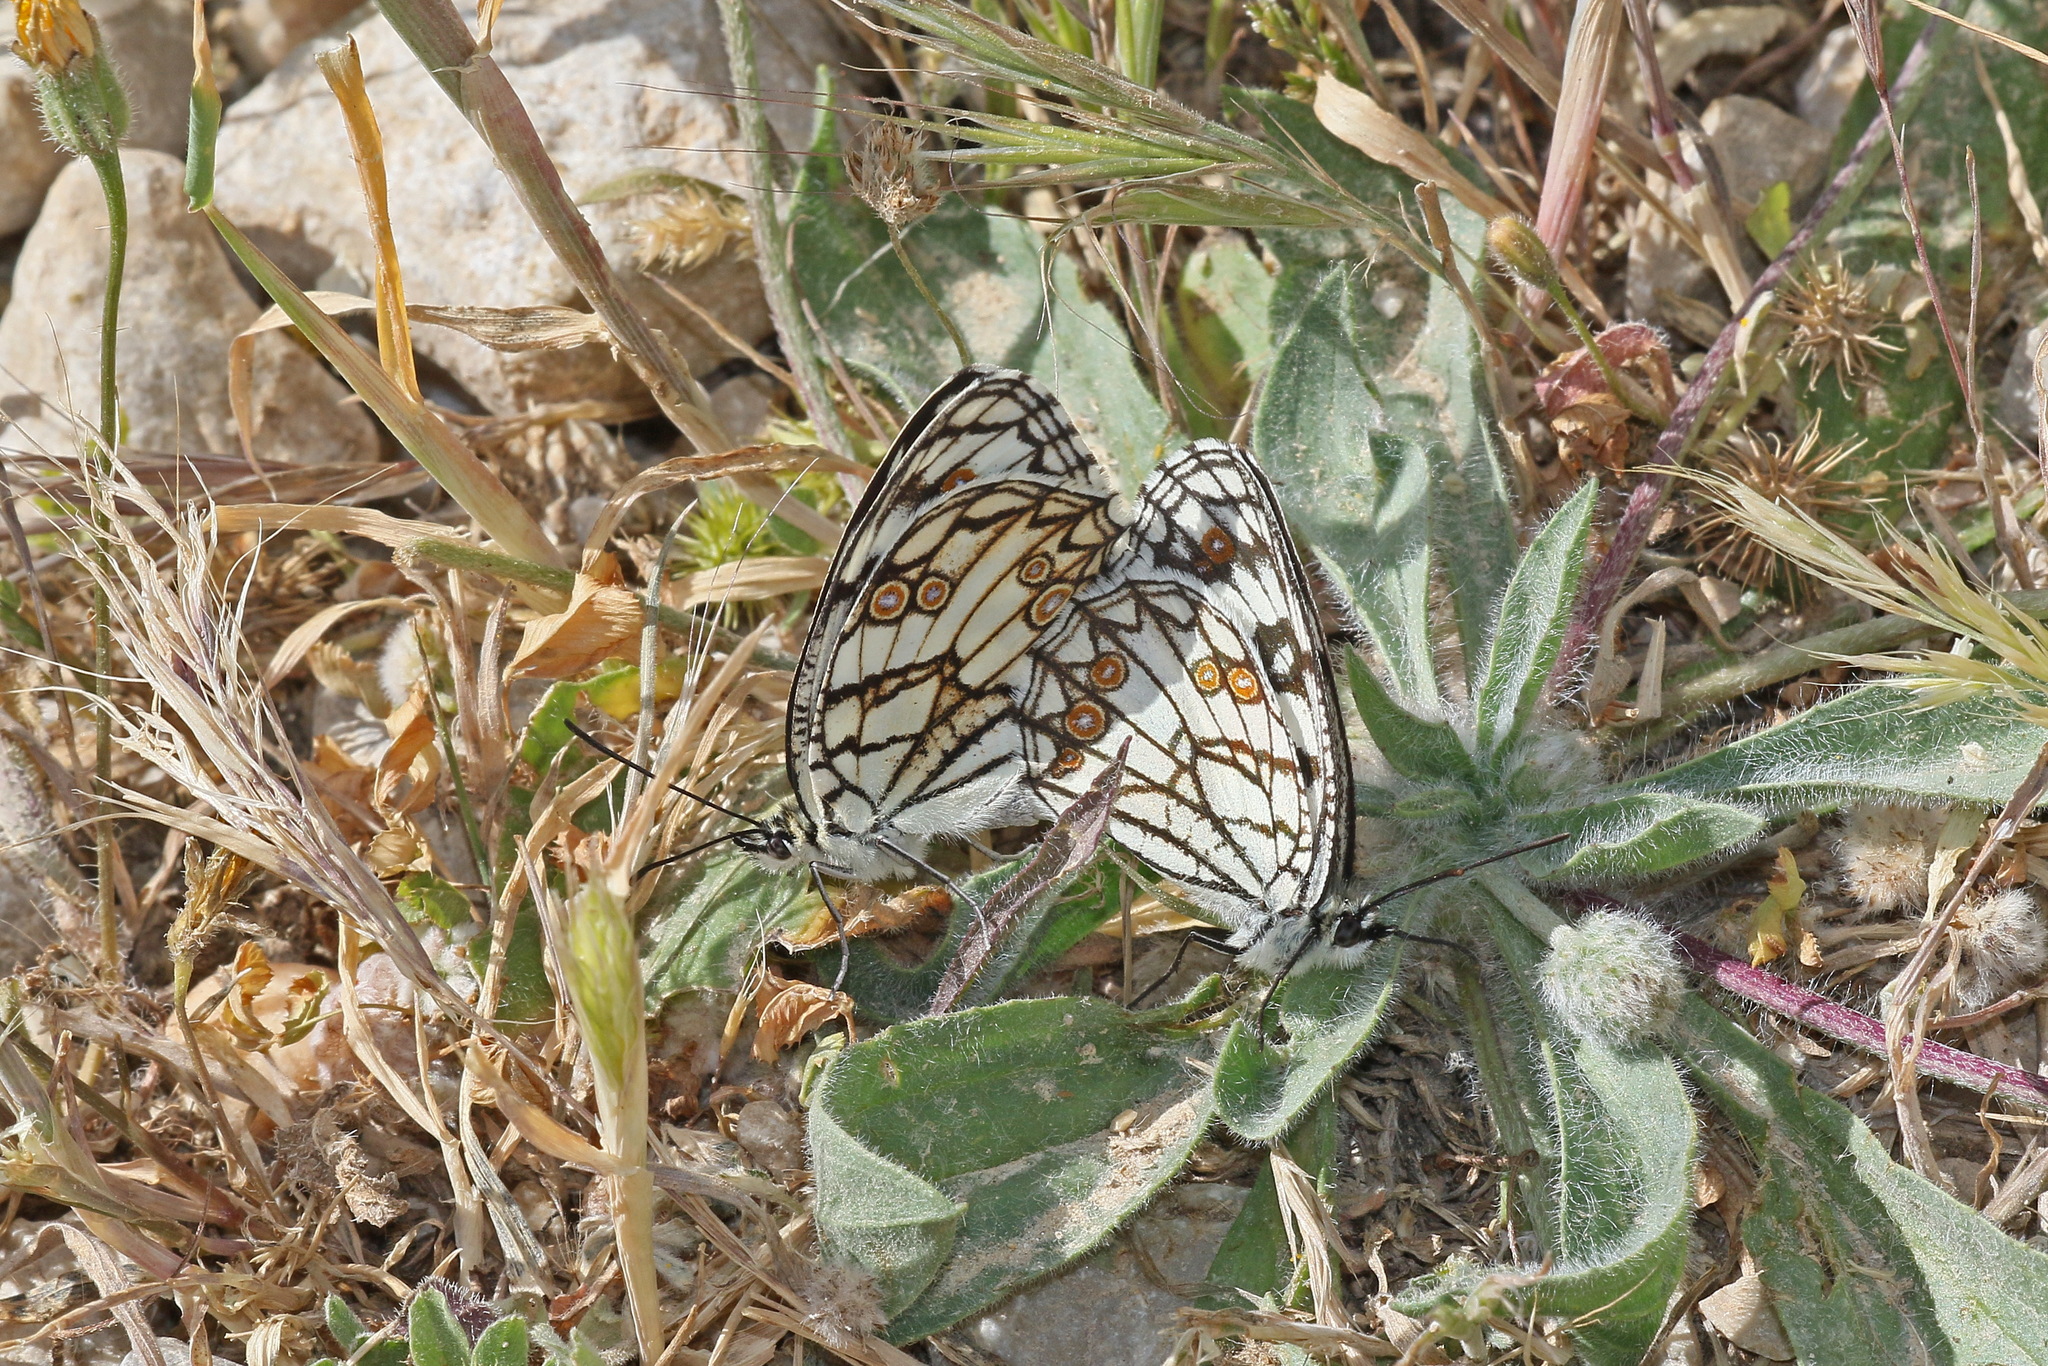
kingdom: Animalia
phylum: Arthropoda
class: Insecta
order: Lepidoptera
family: Nymphalidae
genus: Melanargia
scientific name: Melanargia ines
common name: Spanish marbled white
